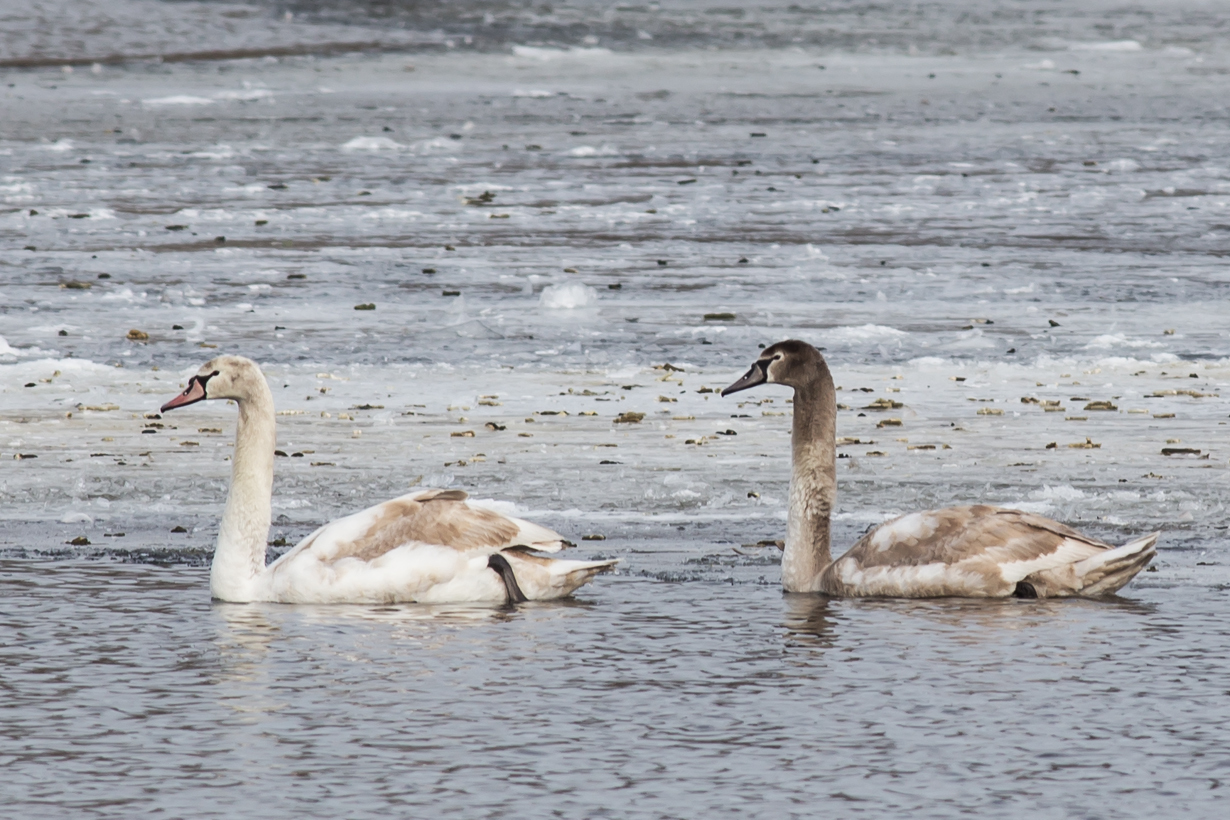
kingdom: Animalia
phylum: Chordata
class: Aves
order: Anseriformes
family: Anatidae
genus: Cygnus
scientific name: Cygnus olor
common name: Mute swan
